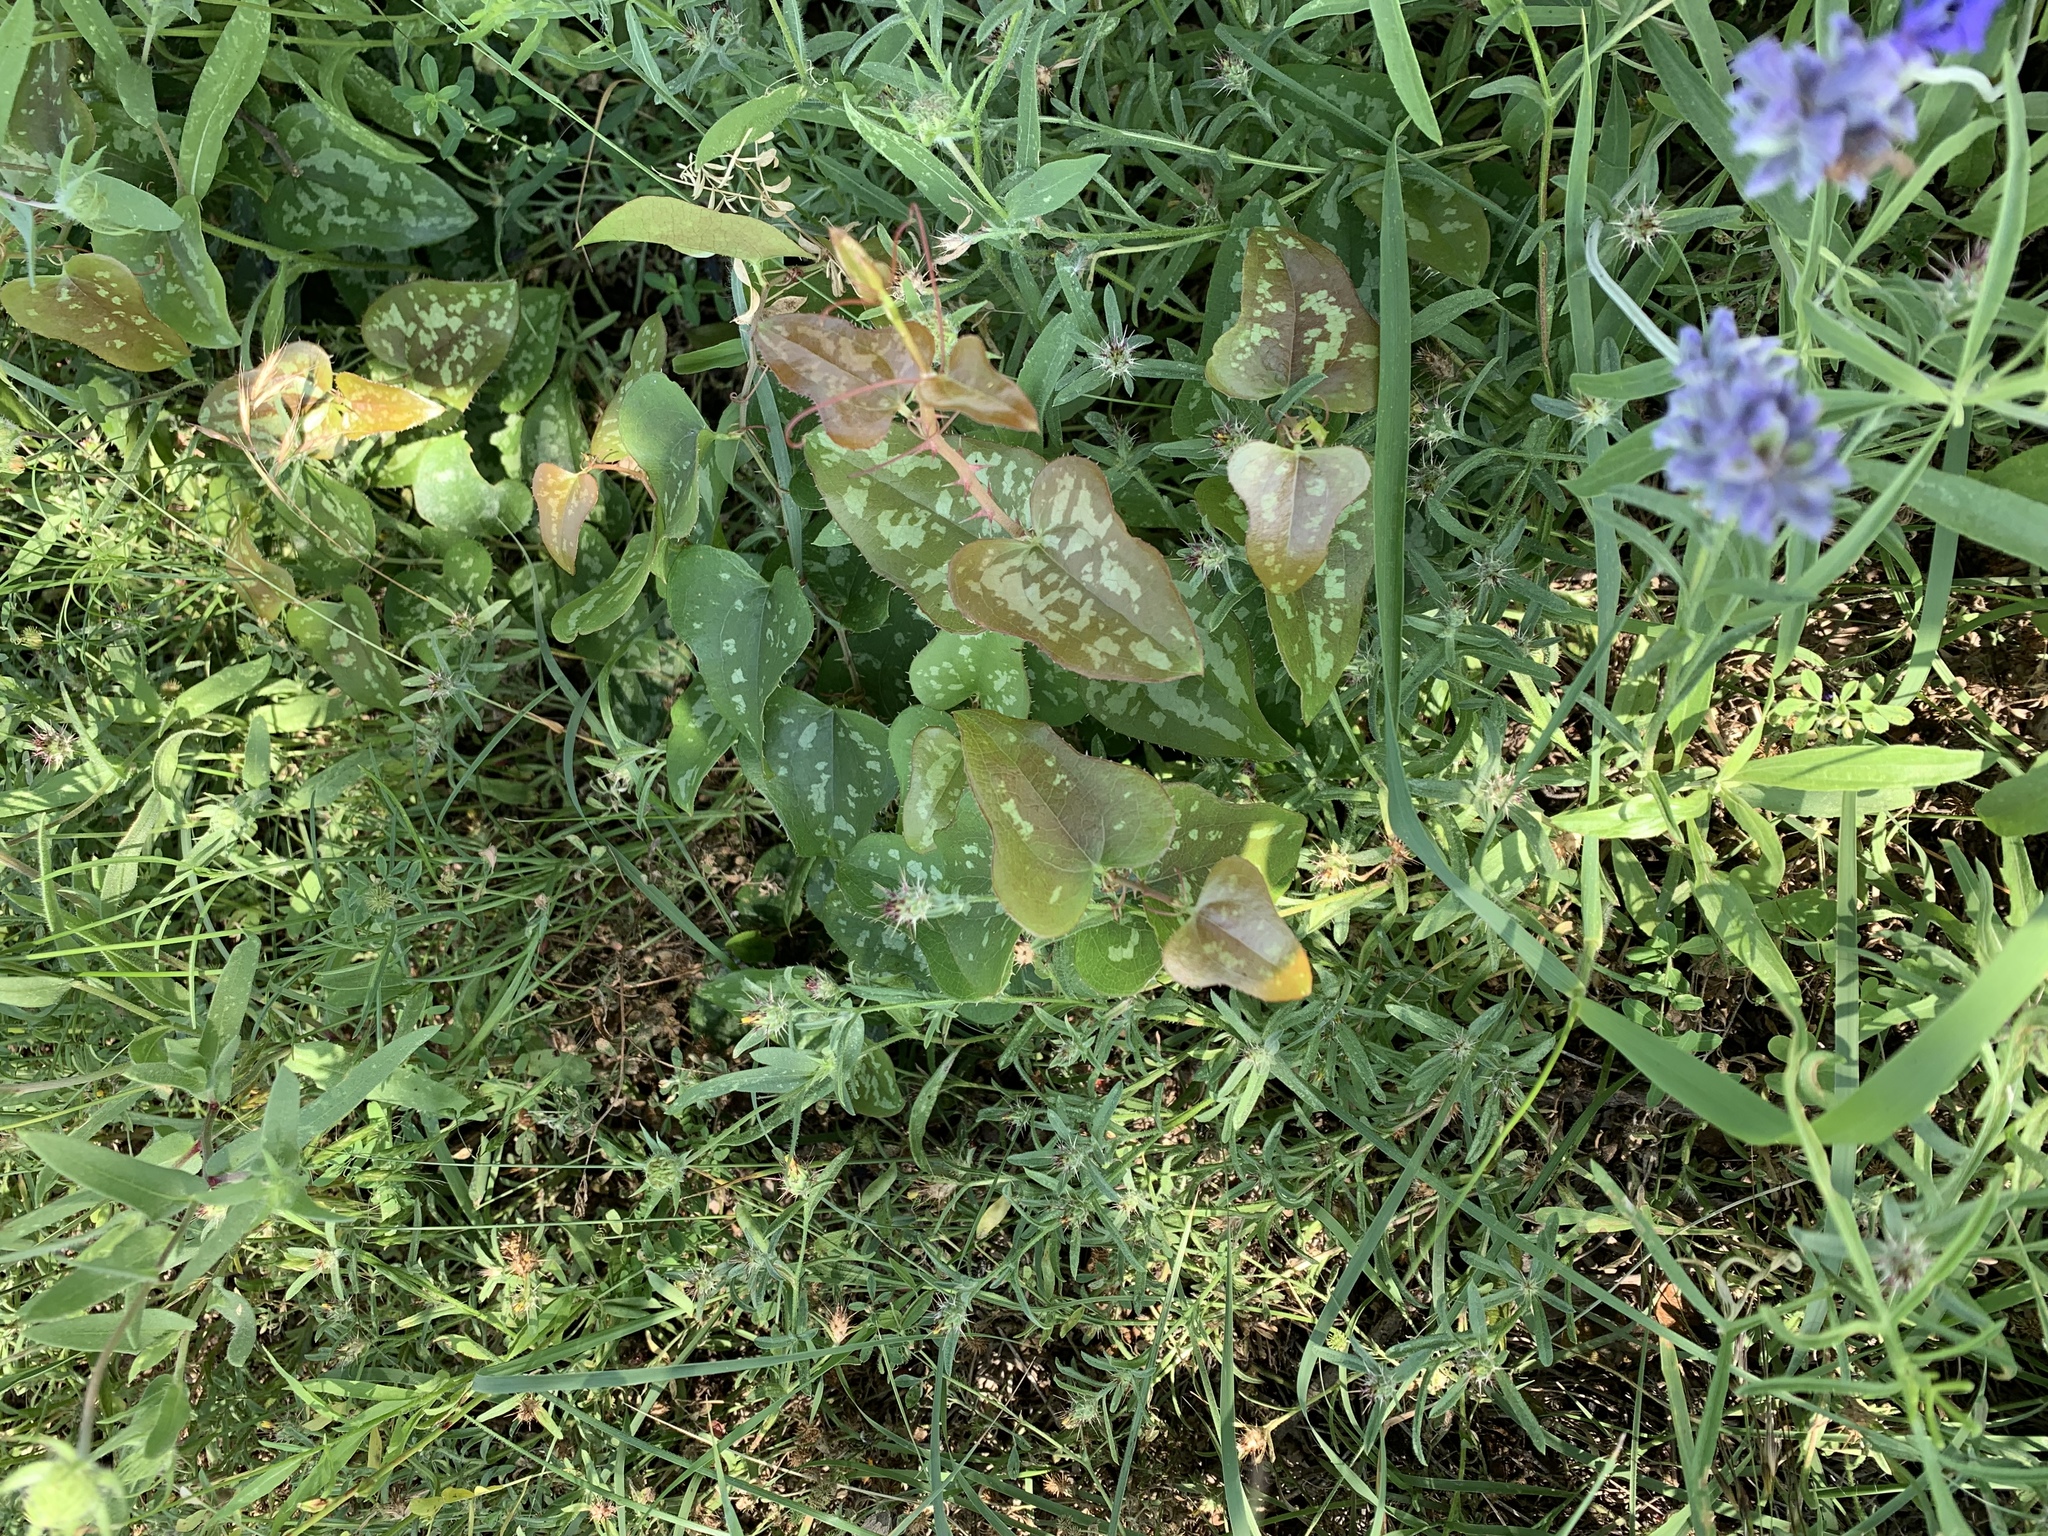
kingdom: Plantae
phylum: Tracheophyta
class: Liliopsida
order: Liliales
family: Smilacaceae
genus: Smilax
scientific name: Smilax bona-nox
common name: Catbrier
